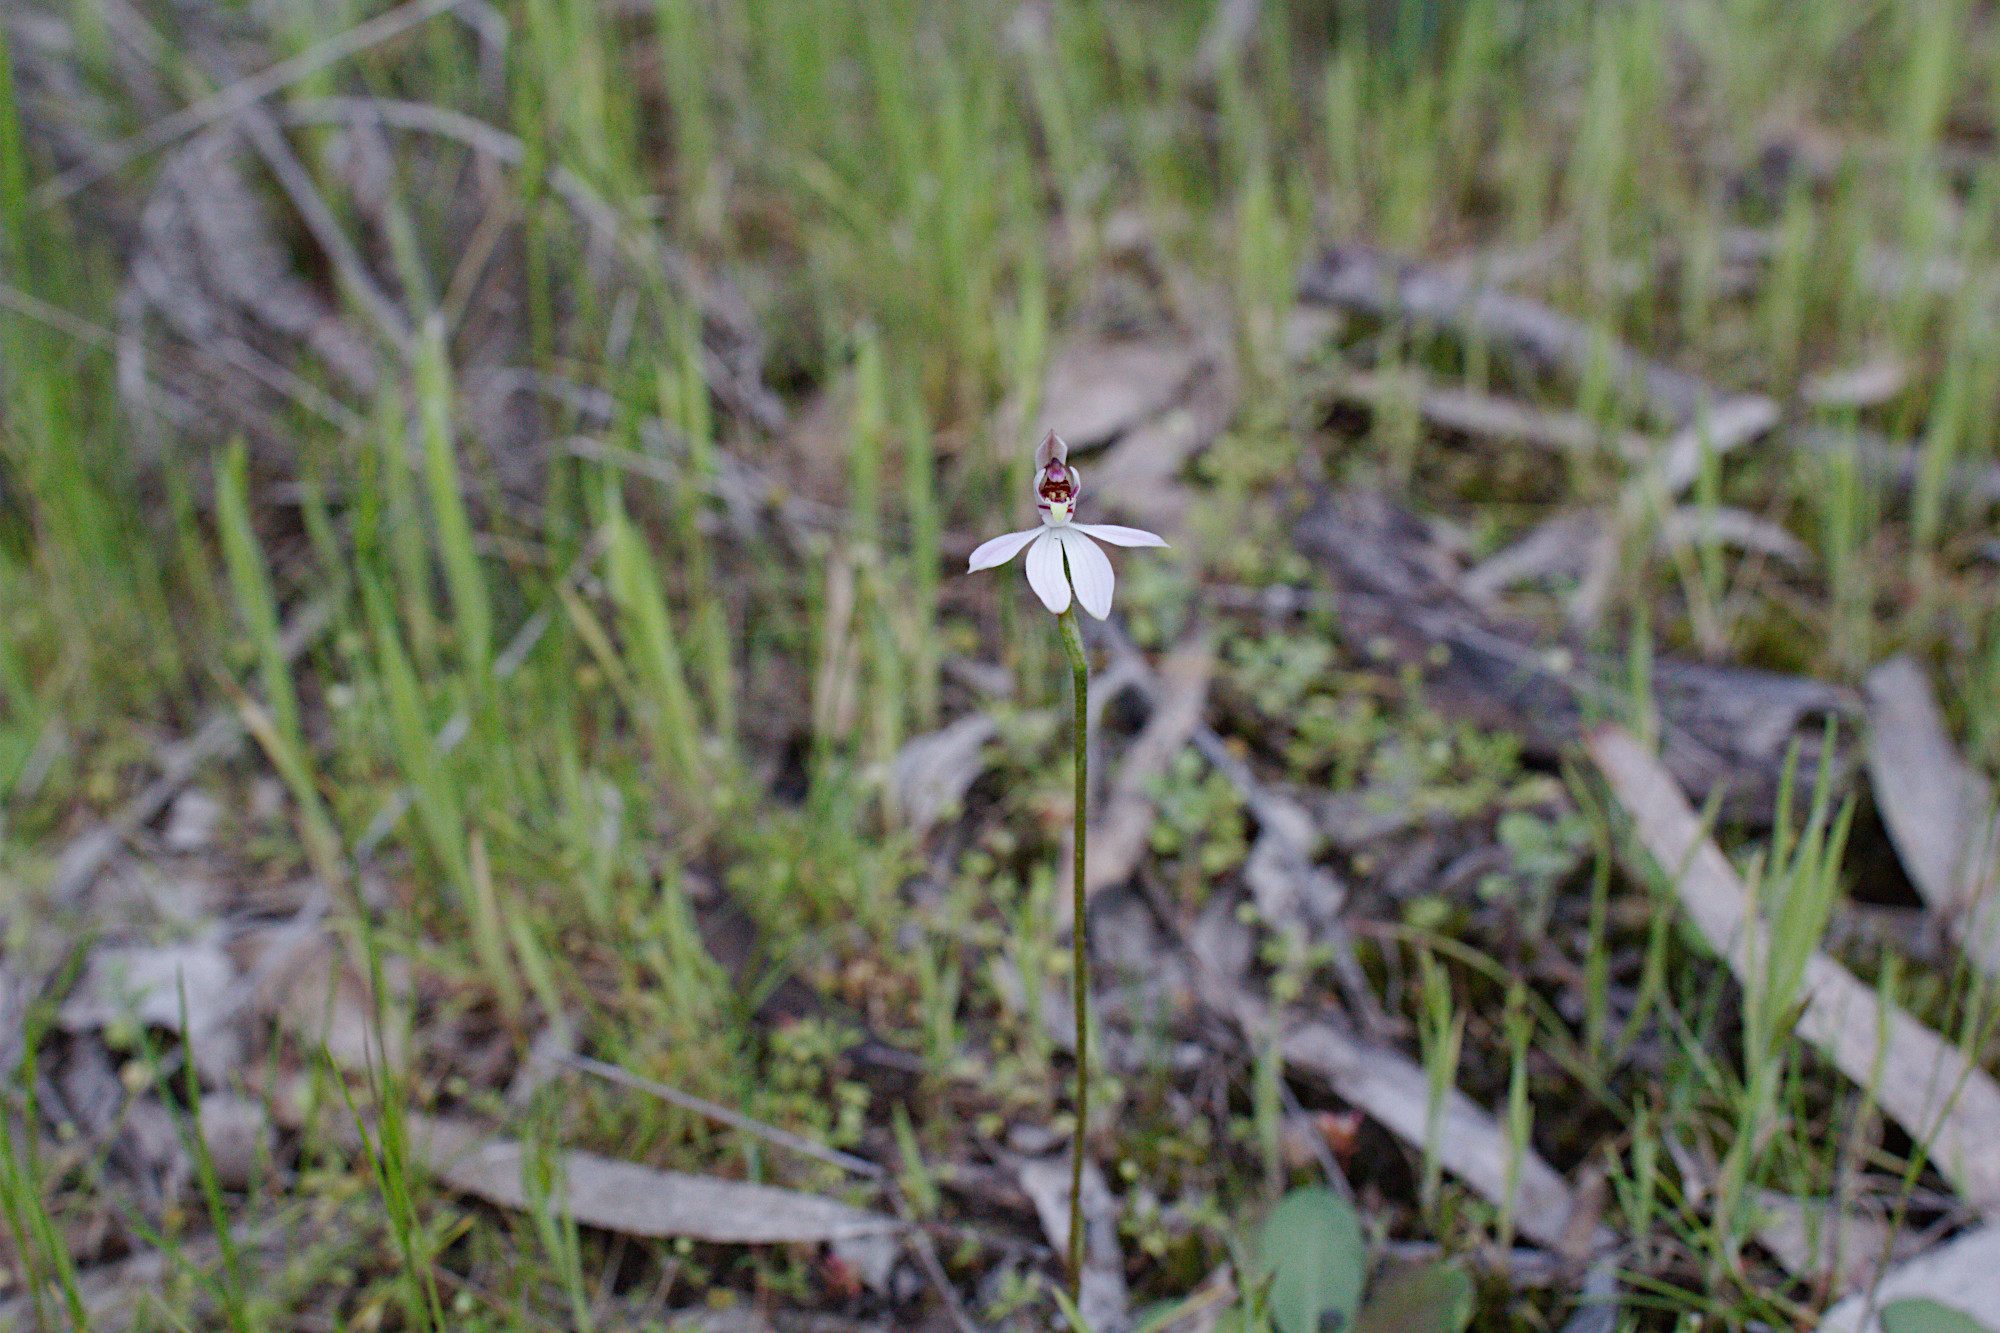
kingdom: Plantae
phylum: Tracheophyta
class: Liliopsida
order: Asparagales
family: Orchidaceae
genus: Caladenia
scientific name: Caladenia carnea
